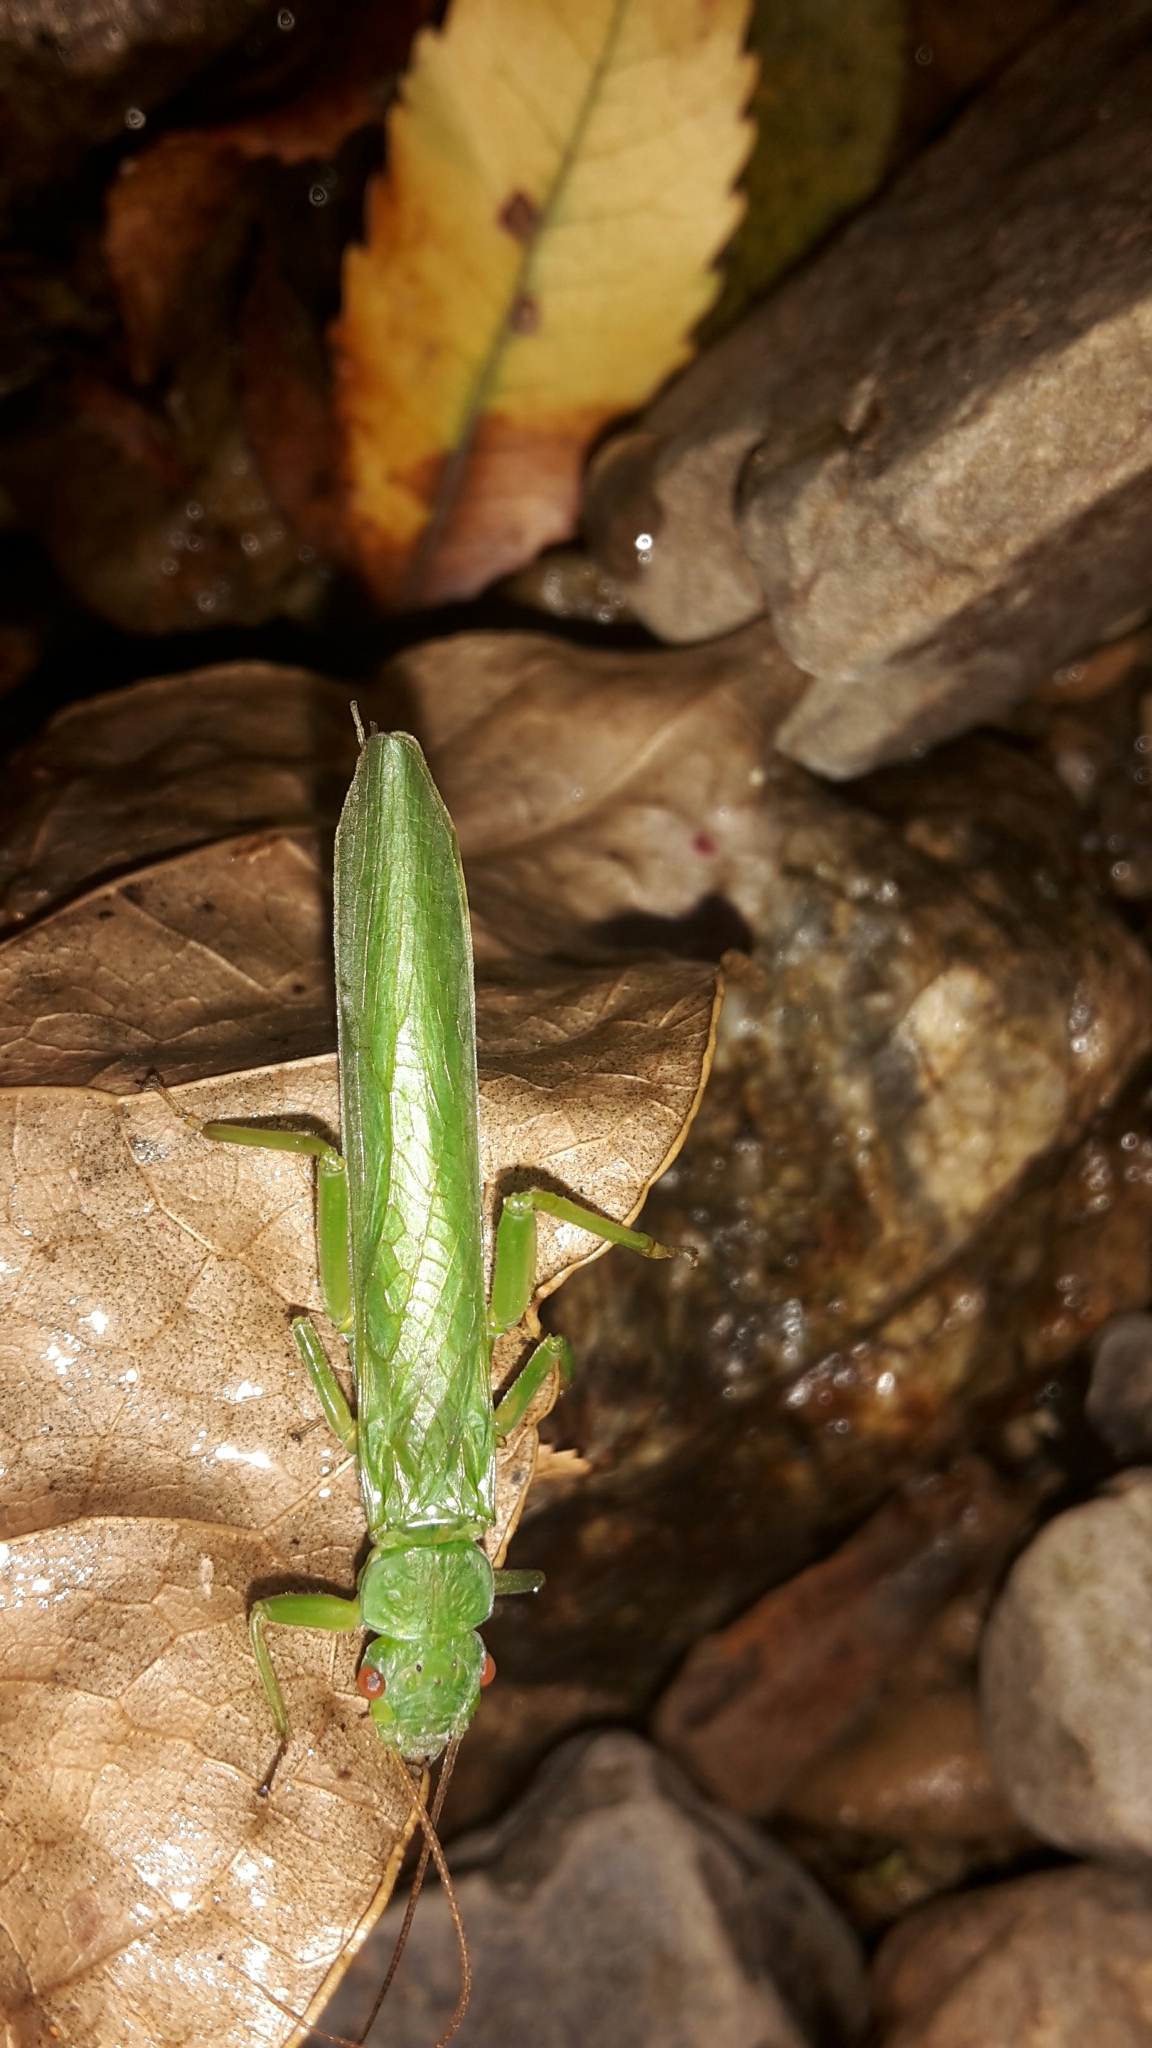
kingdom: Animalia
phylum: Arthropoda
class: Insecta
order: Plecoptera
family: Eustheniidae
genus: Stenoperla
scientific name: Stenoperla
